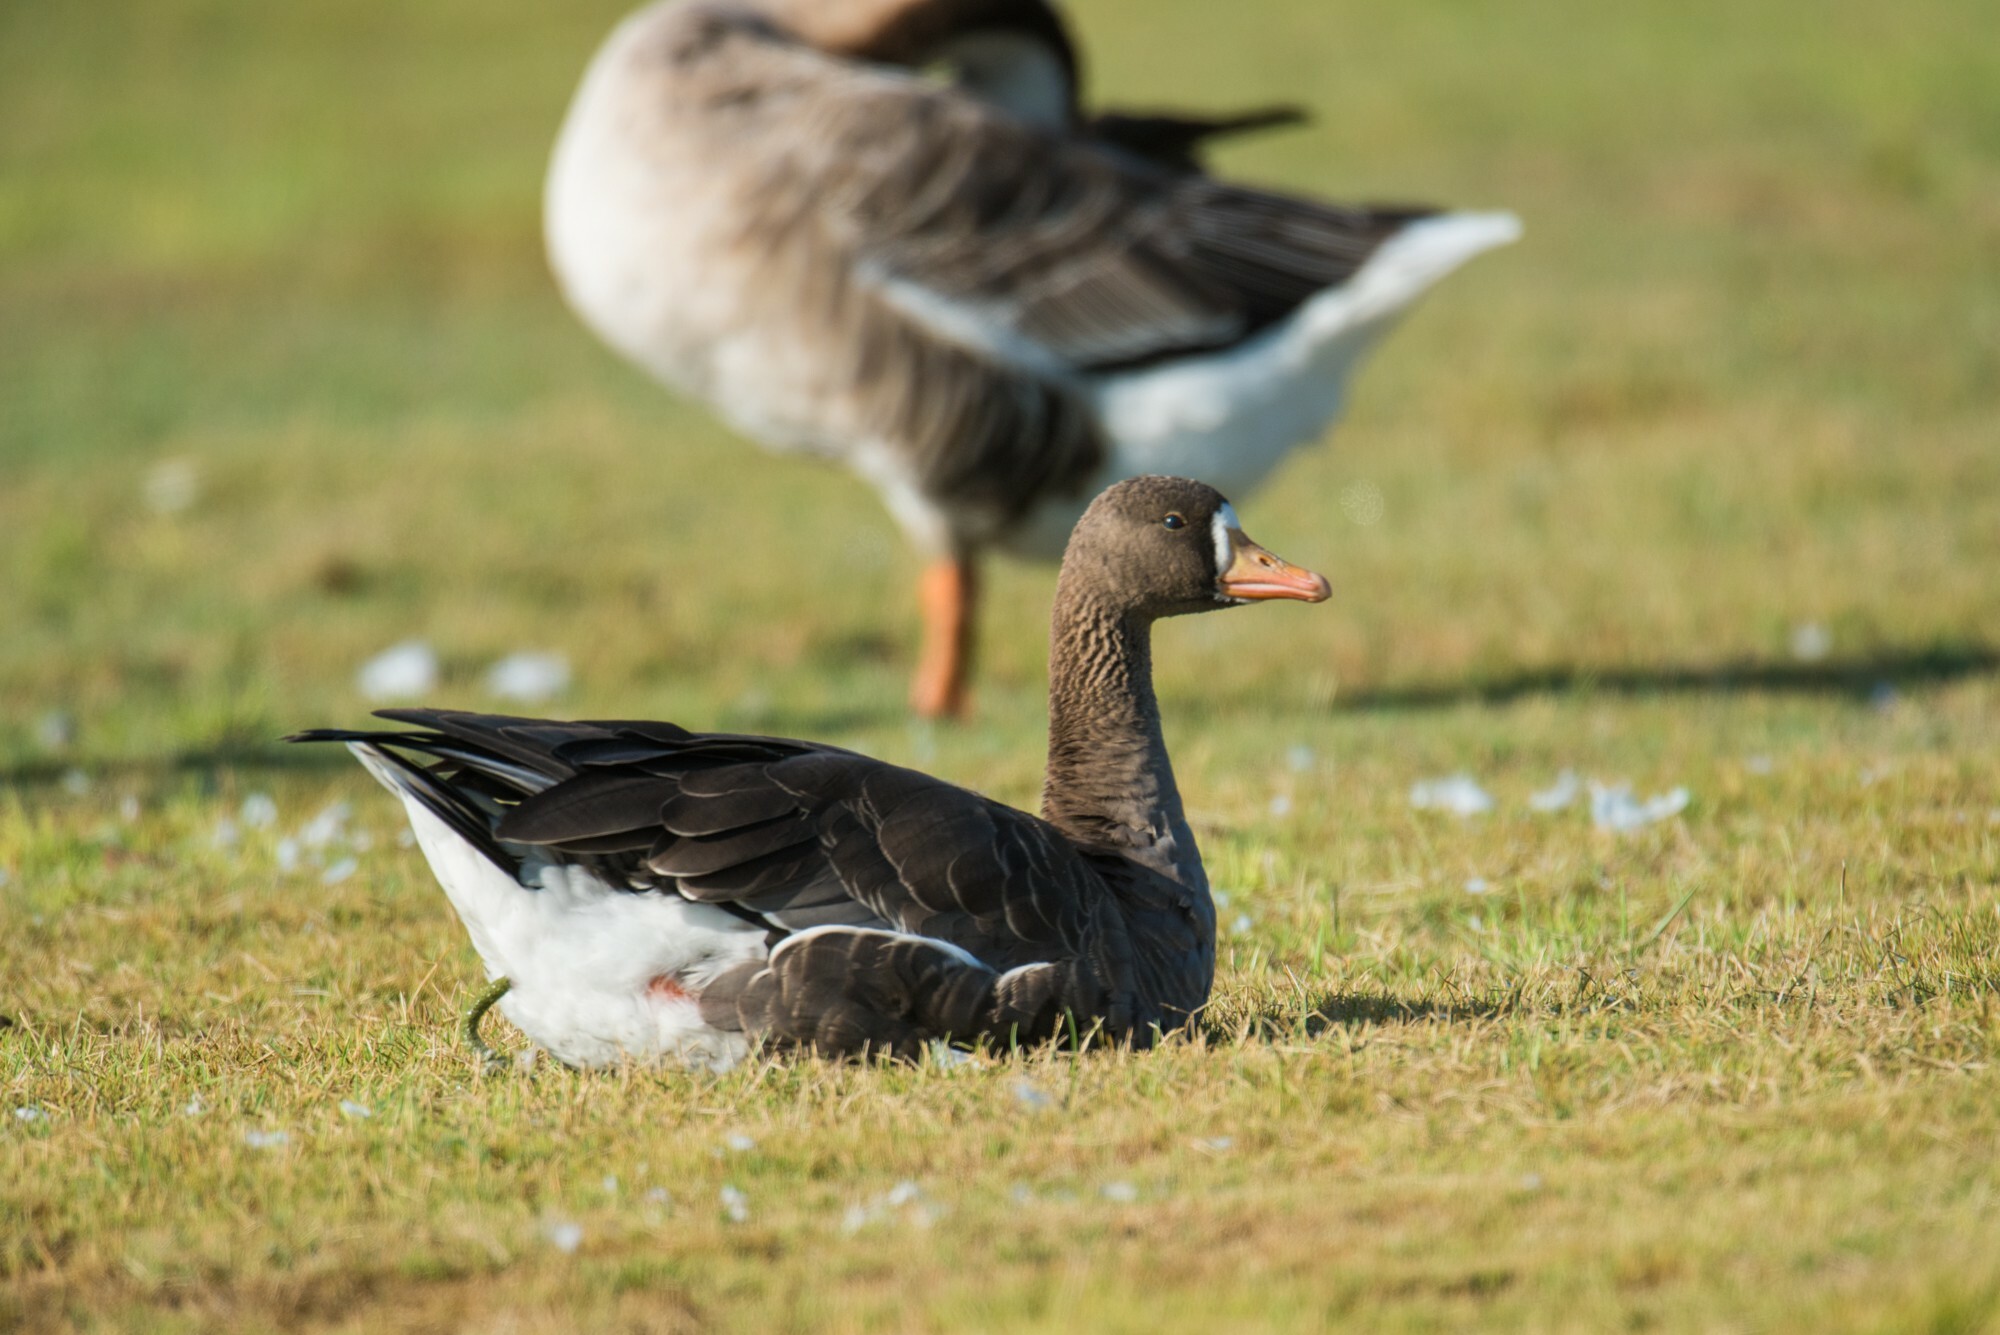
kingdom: Animalia
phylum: Chordata
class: Aves
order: Anseriformes
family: Anatidae
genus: Anser
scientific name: Anser albifrons
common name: Greater white-fronted goose
